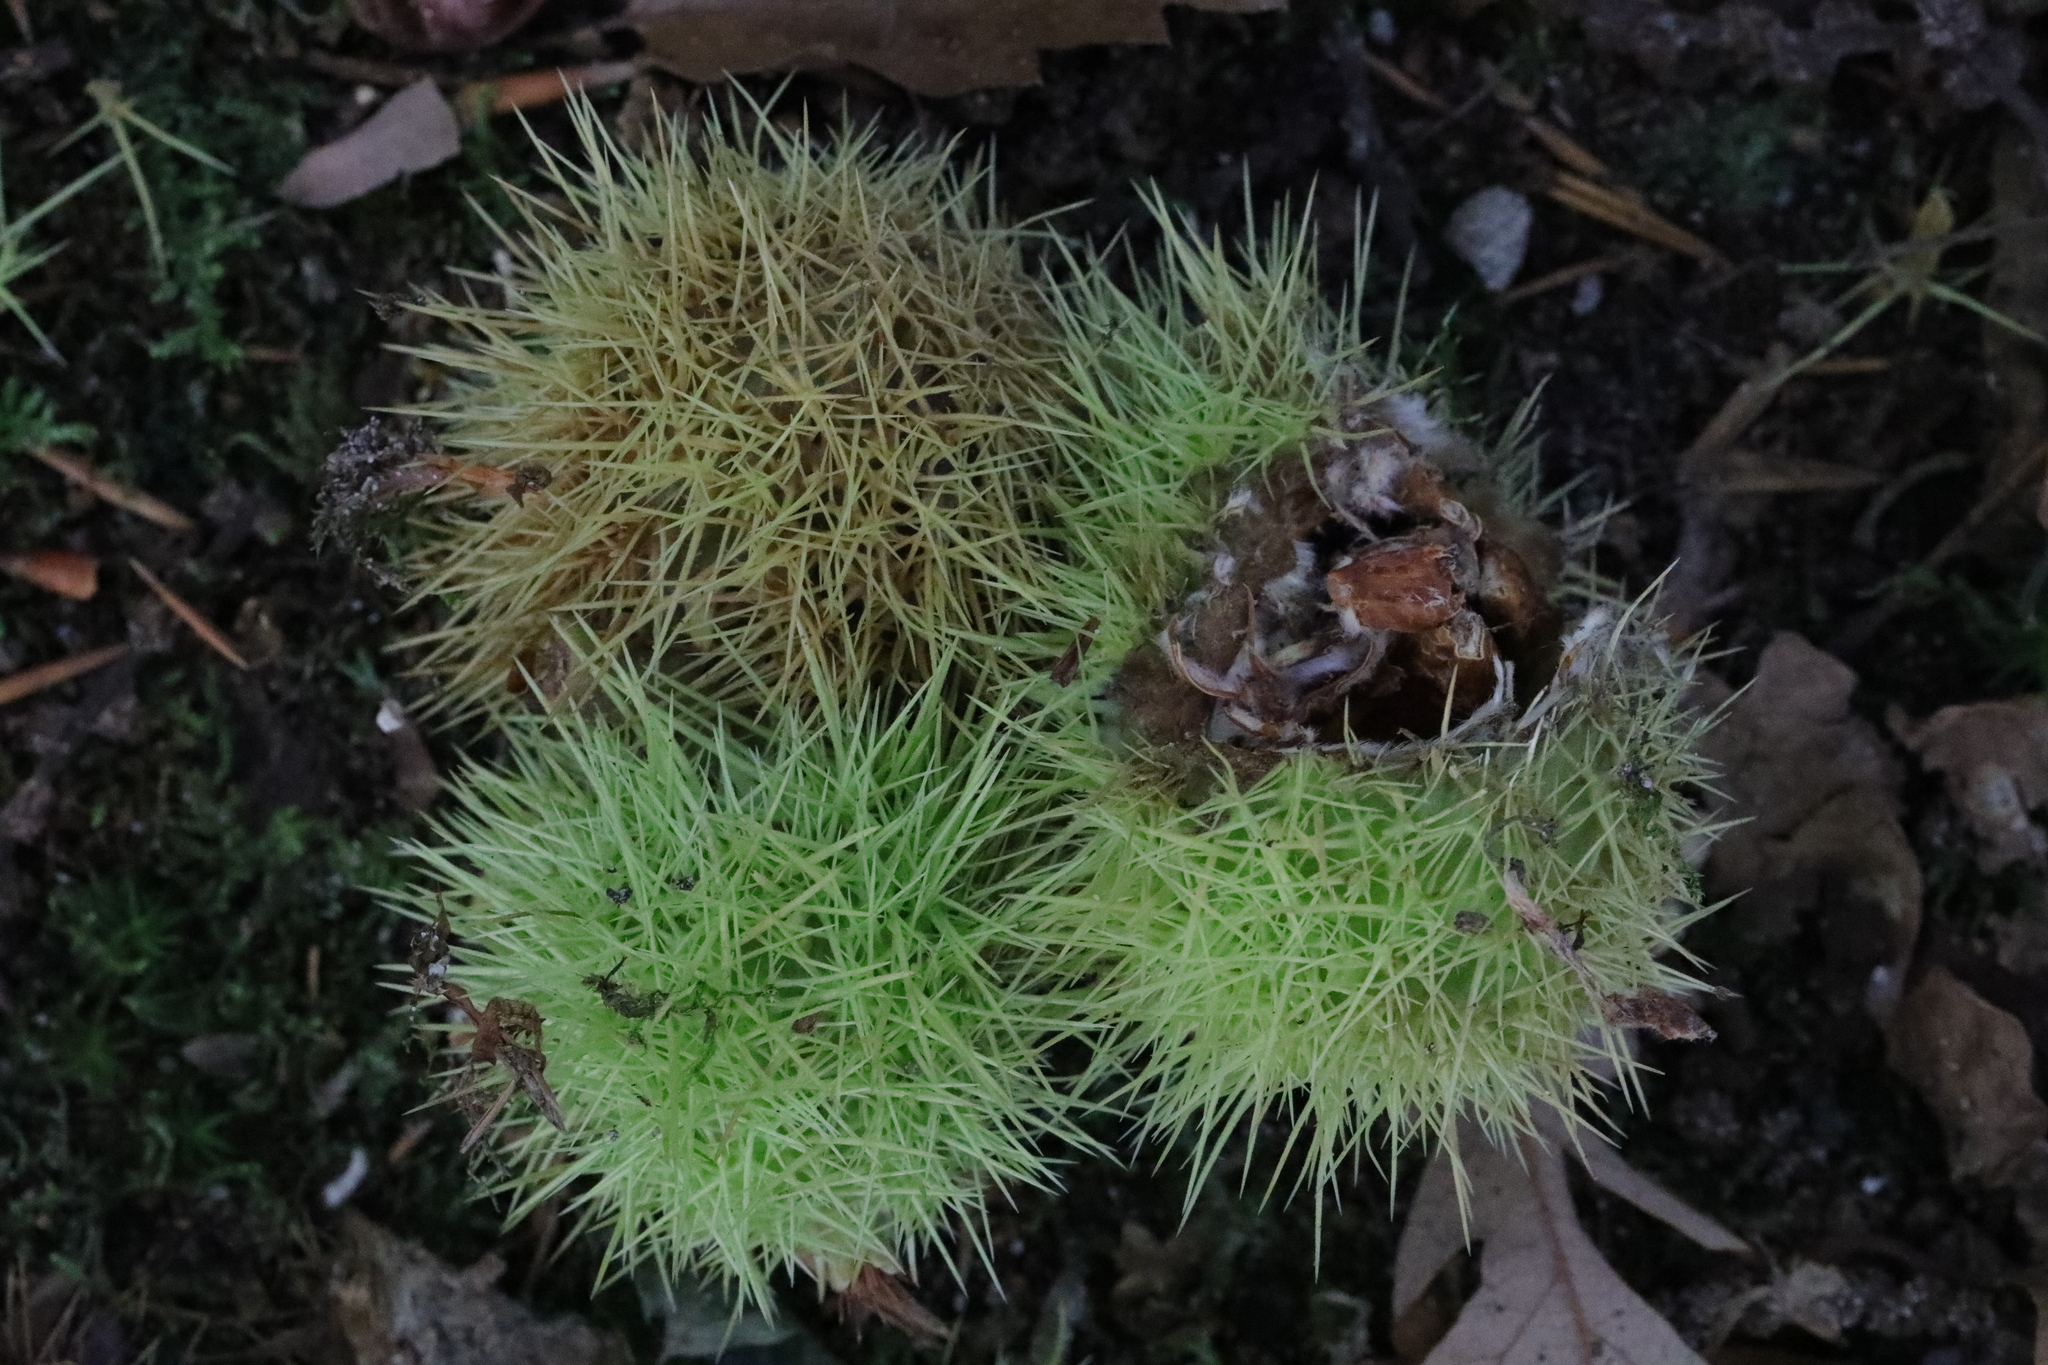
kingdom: Plantae
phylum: Tracheophyta
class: Magnoliopsida
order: Fagales
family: Fagaceae
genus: Castanea
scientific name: Castanea sativa
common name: Sweet chestnut
